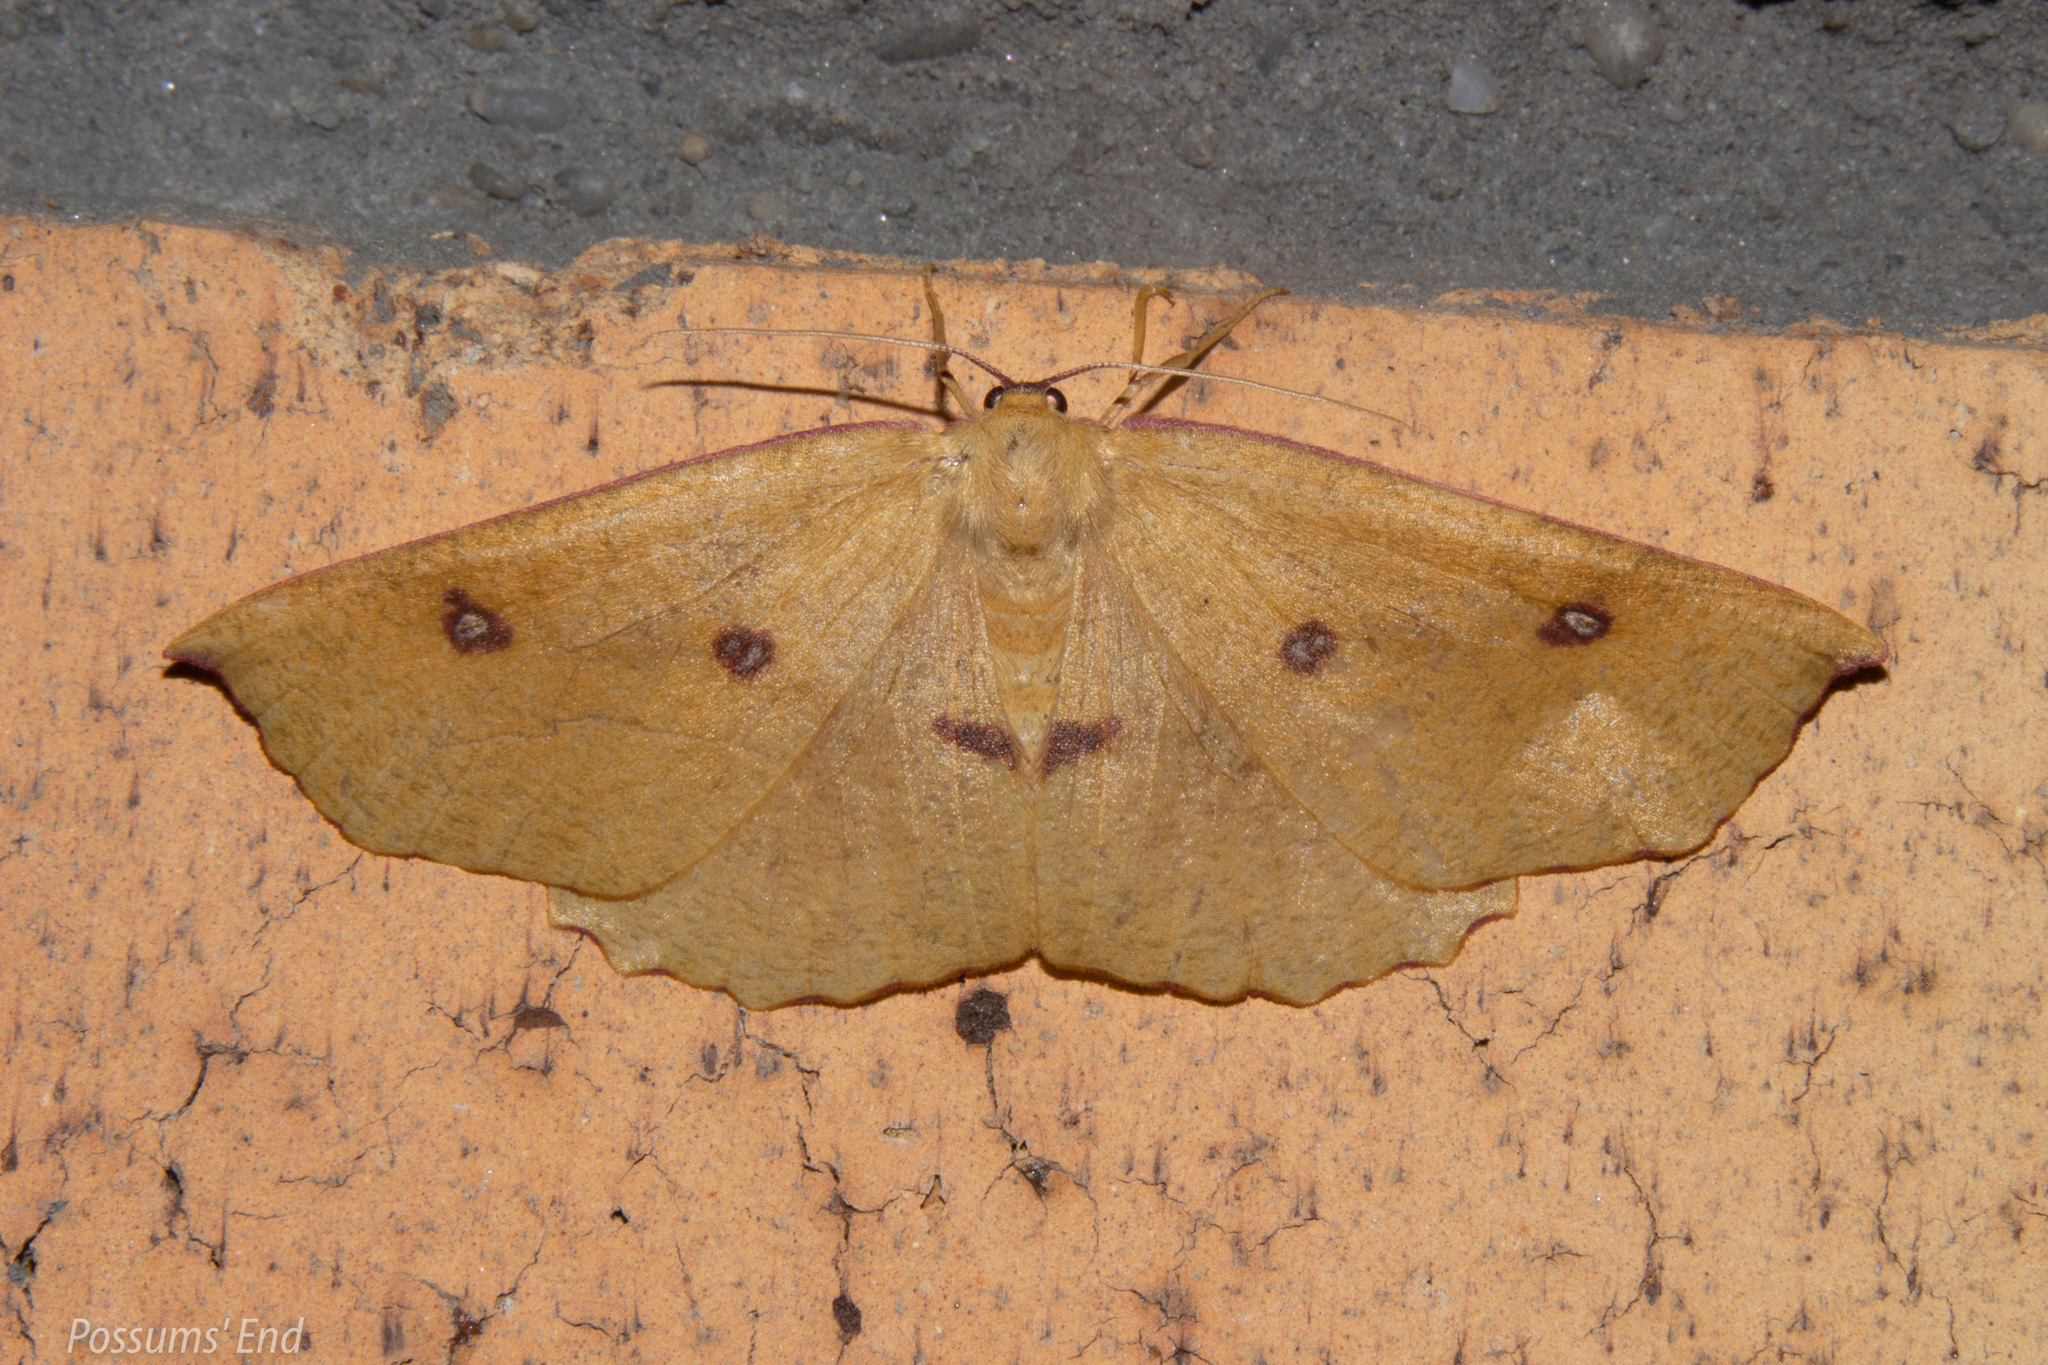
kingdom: Animalia
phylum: Arthropoda
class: Insecta
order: Lepidoptera
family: Geometridae
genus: Xyridacma
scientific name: Xyridacma alectoraria
